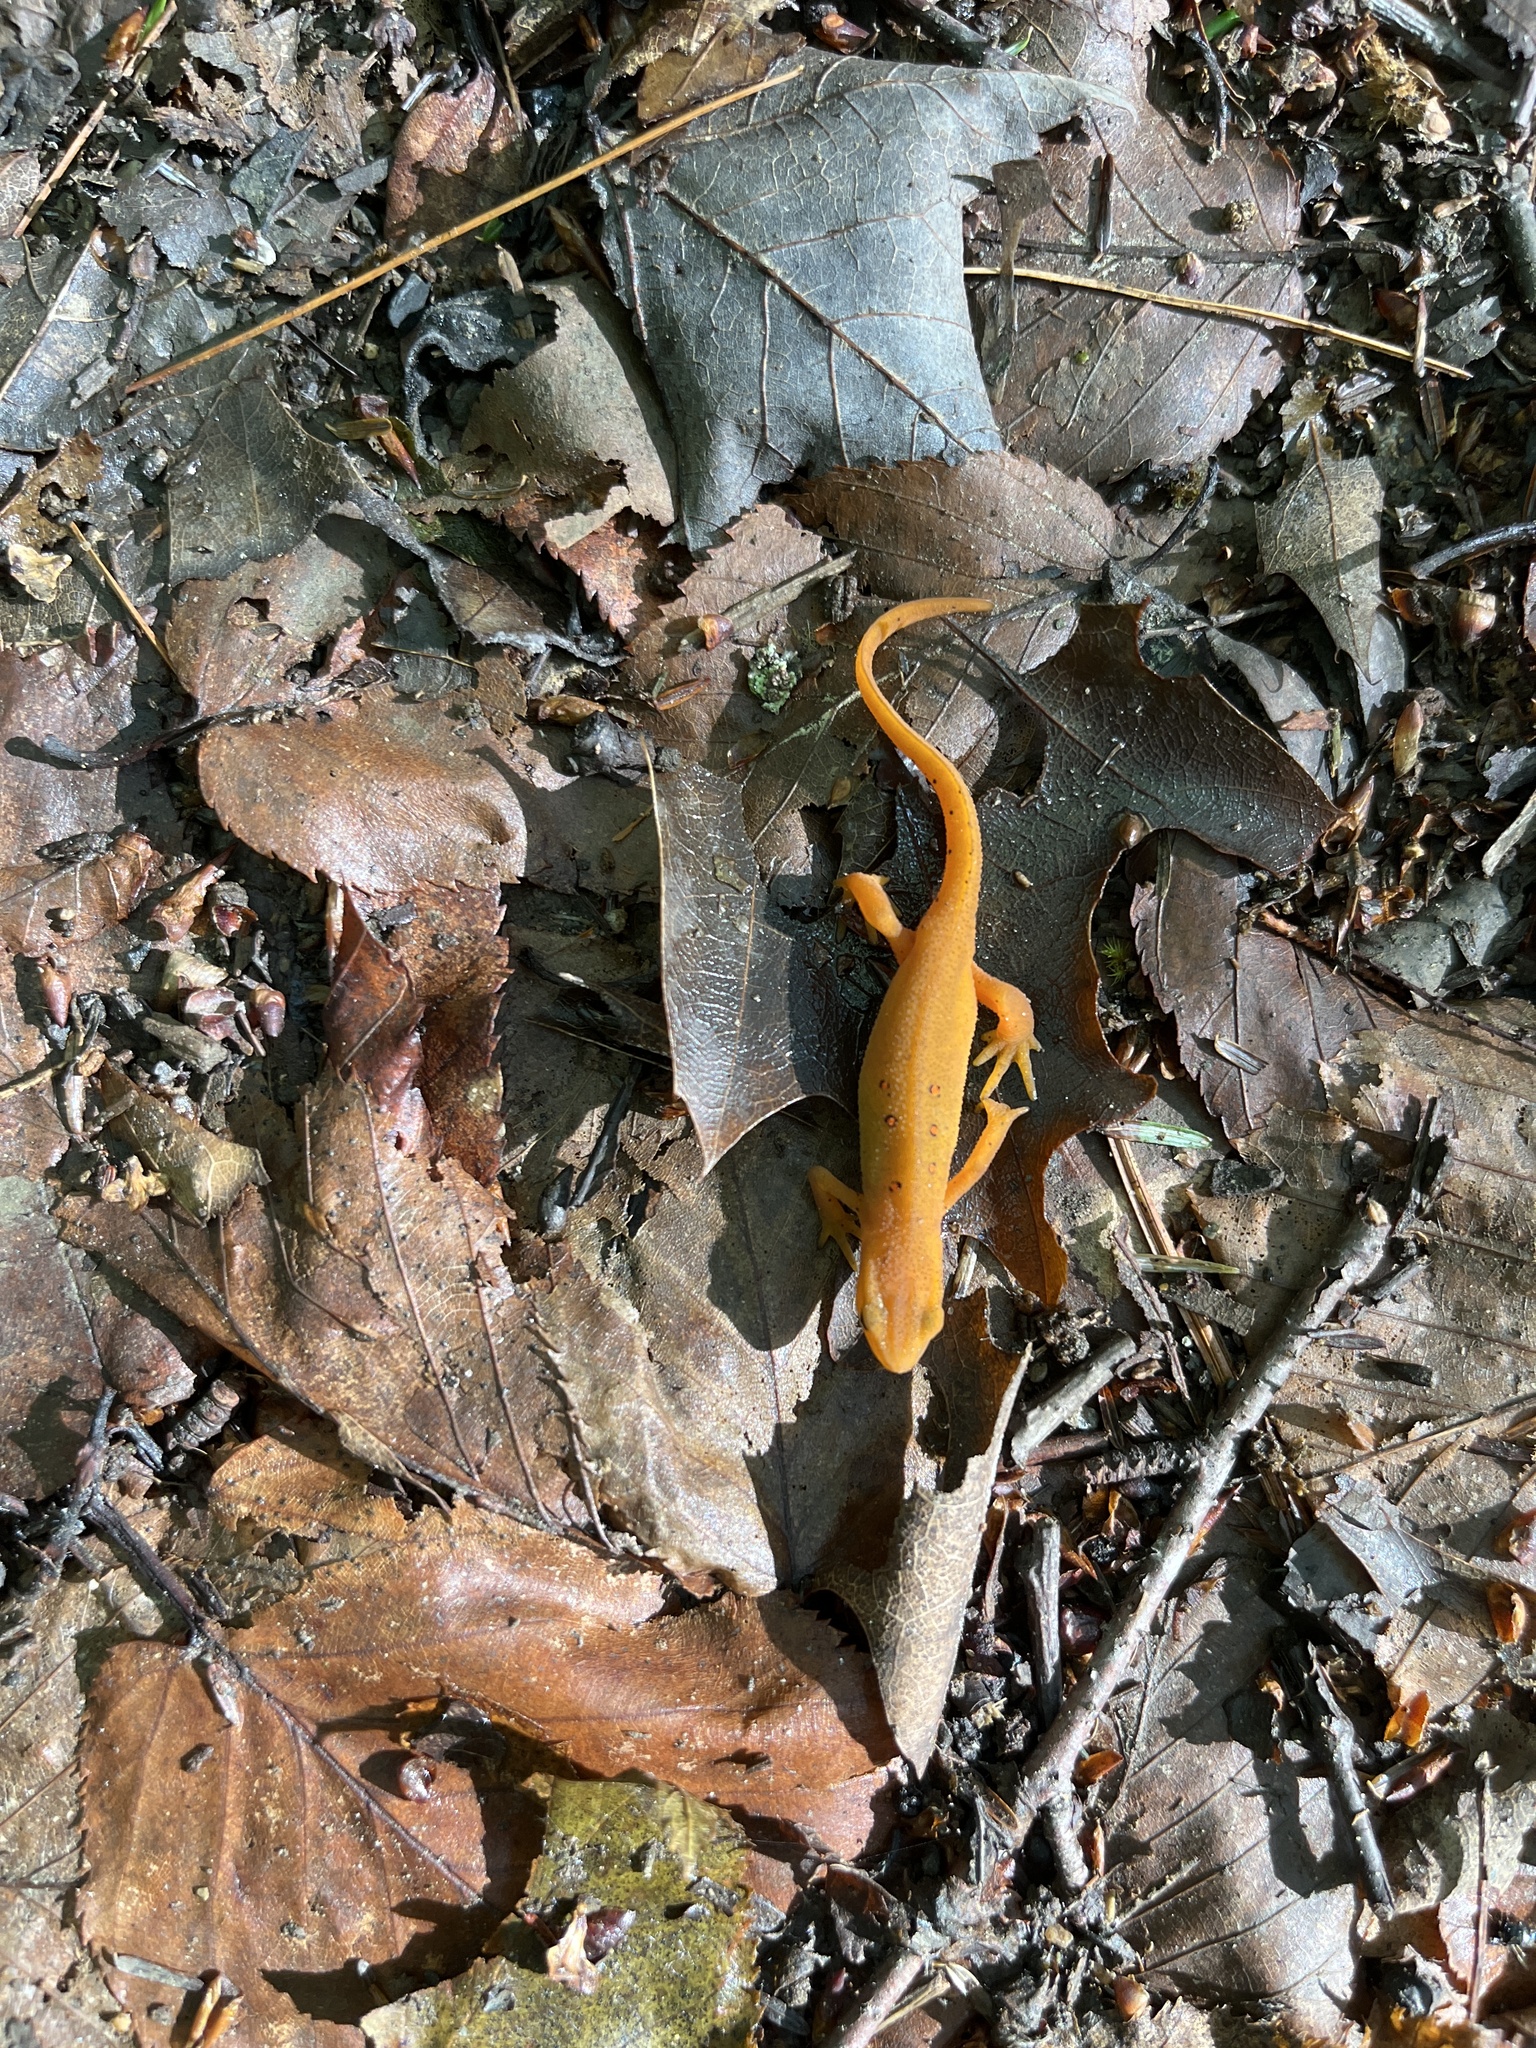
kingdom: Animalia
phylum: Chordata
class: Amphibia
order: Caudata
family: Salamandridae
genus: Notophthalmus
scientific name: Notophthalmus viridescens
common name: Eastern newt
